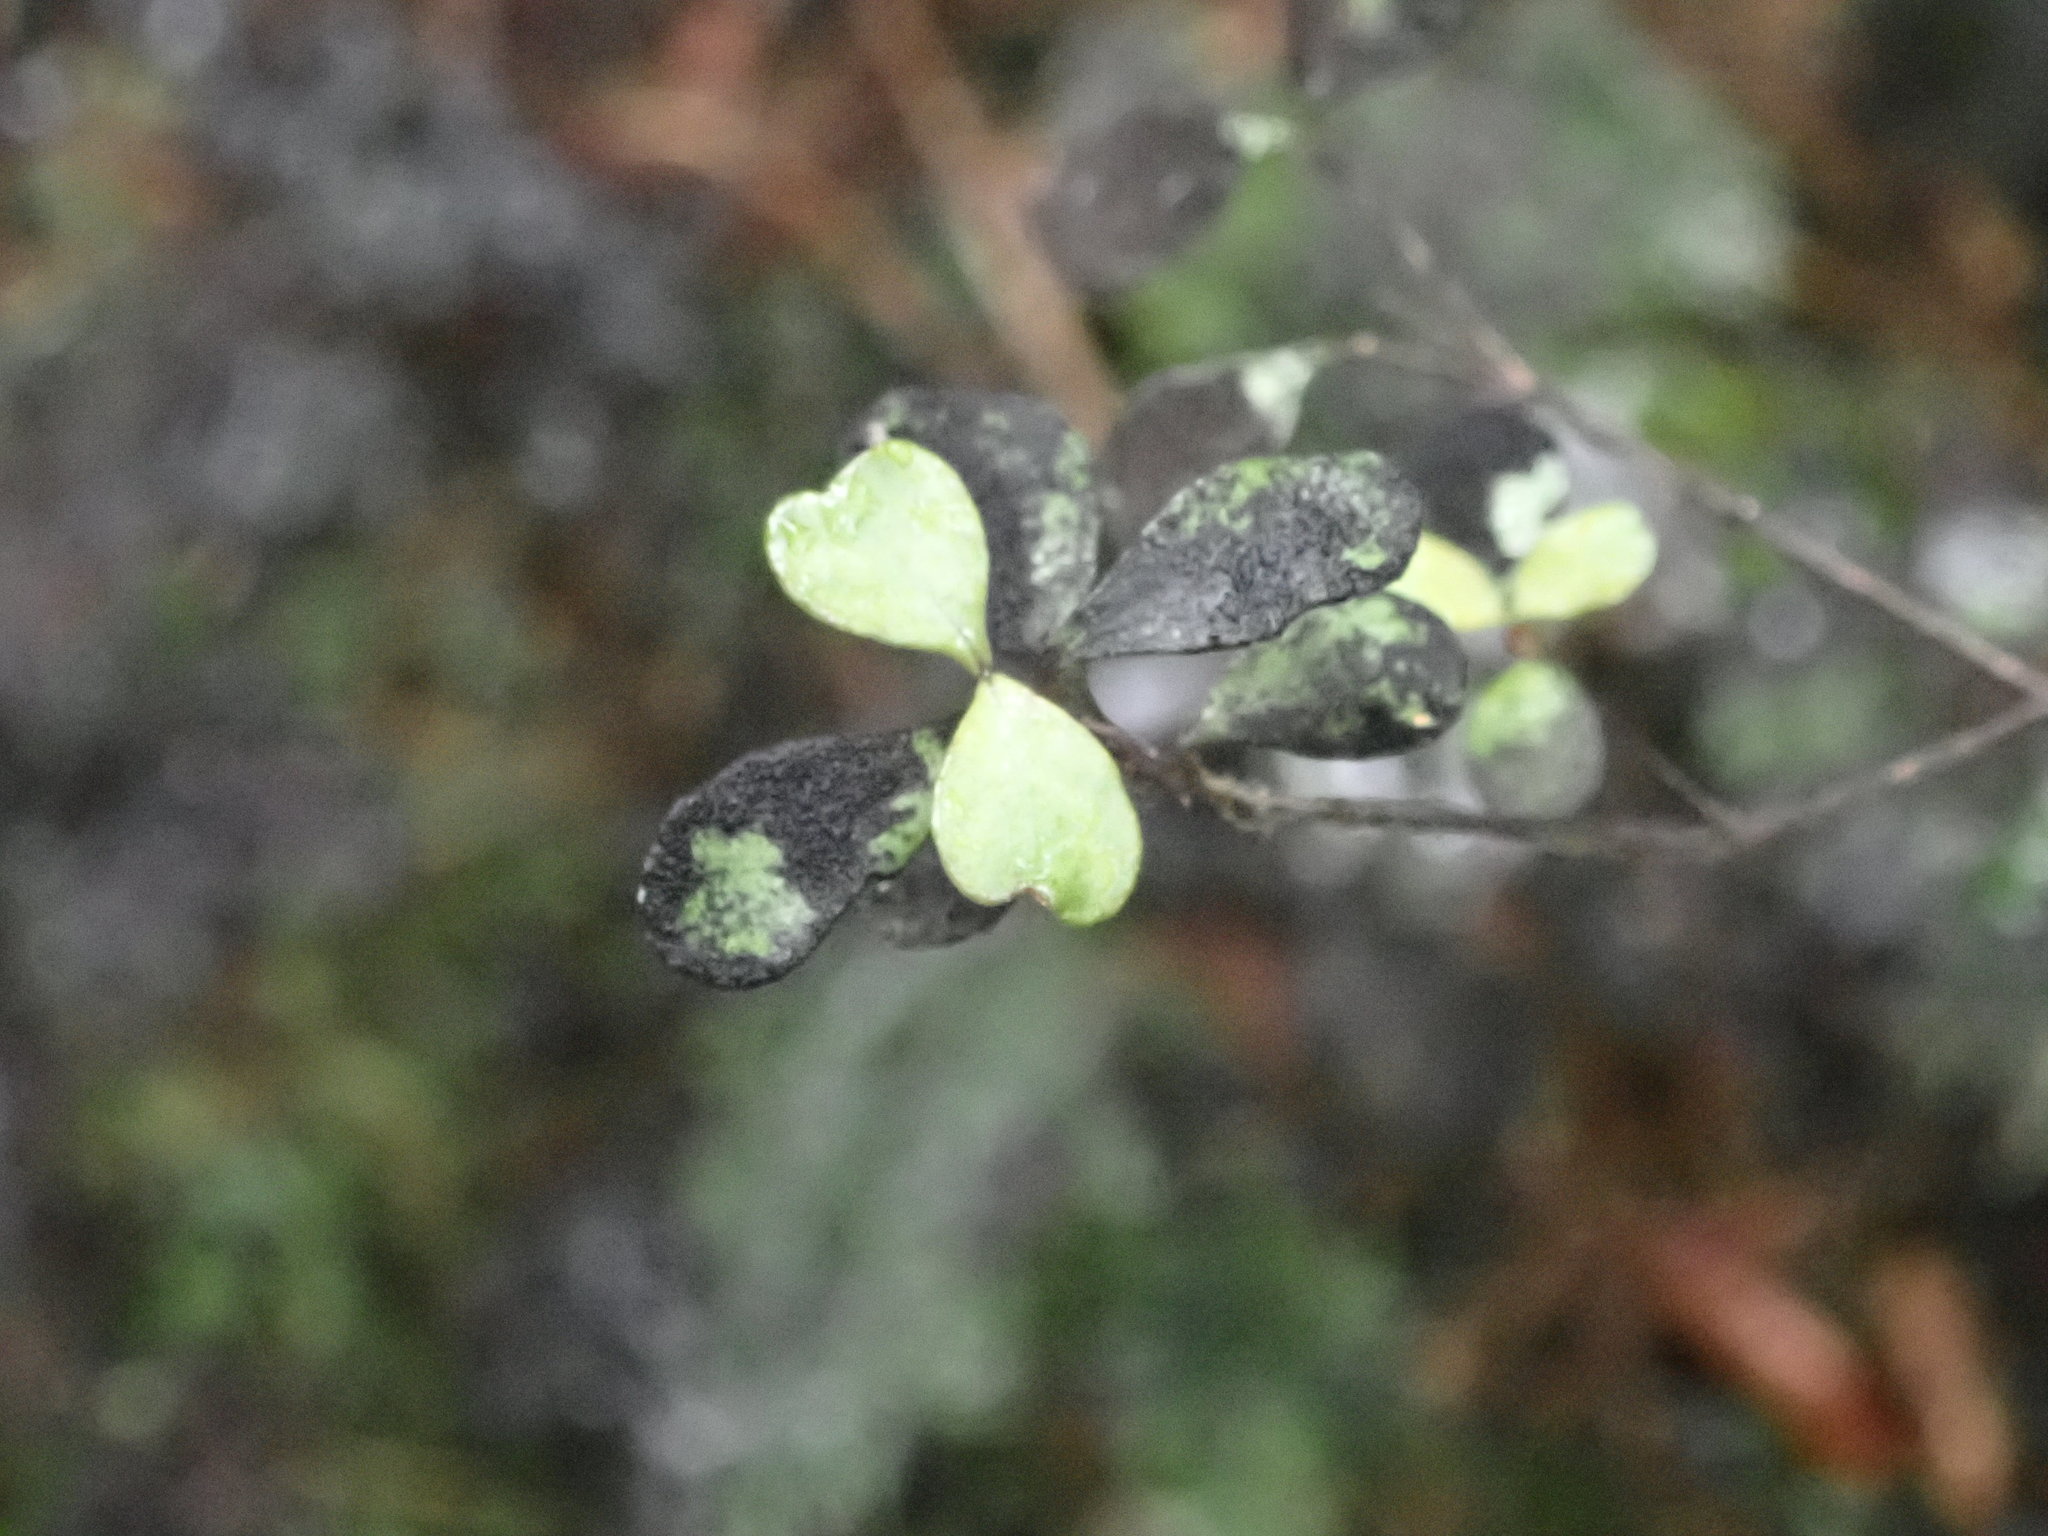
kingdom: Plantae
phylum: Tracheophyta
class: Magnoliopsida
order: Myrtales
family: Myrtaceae
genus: Neomyrtus
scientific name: Neomyrtus pedunculata
